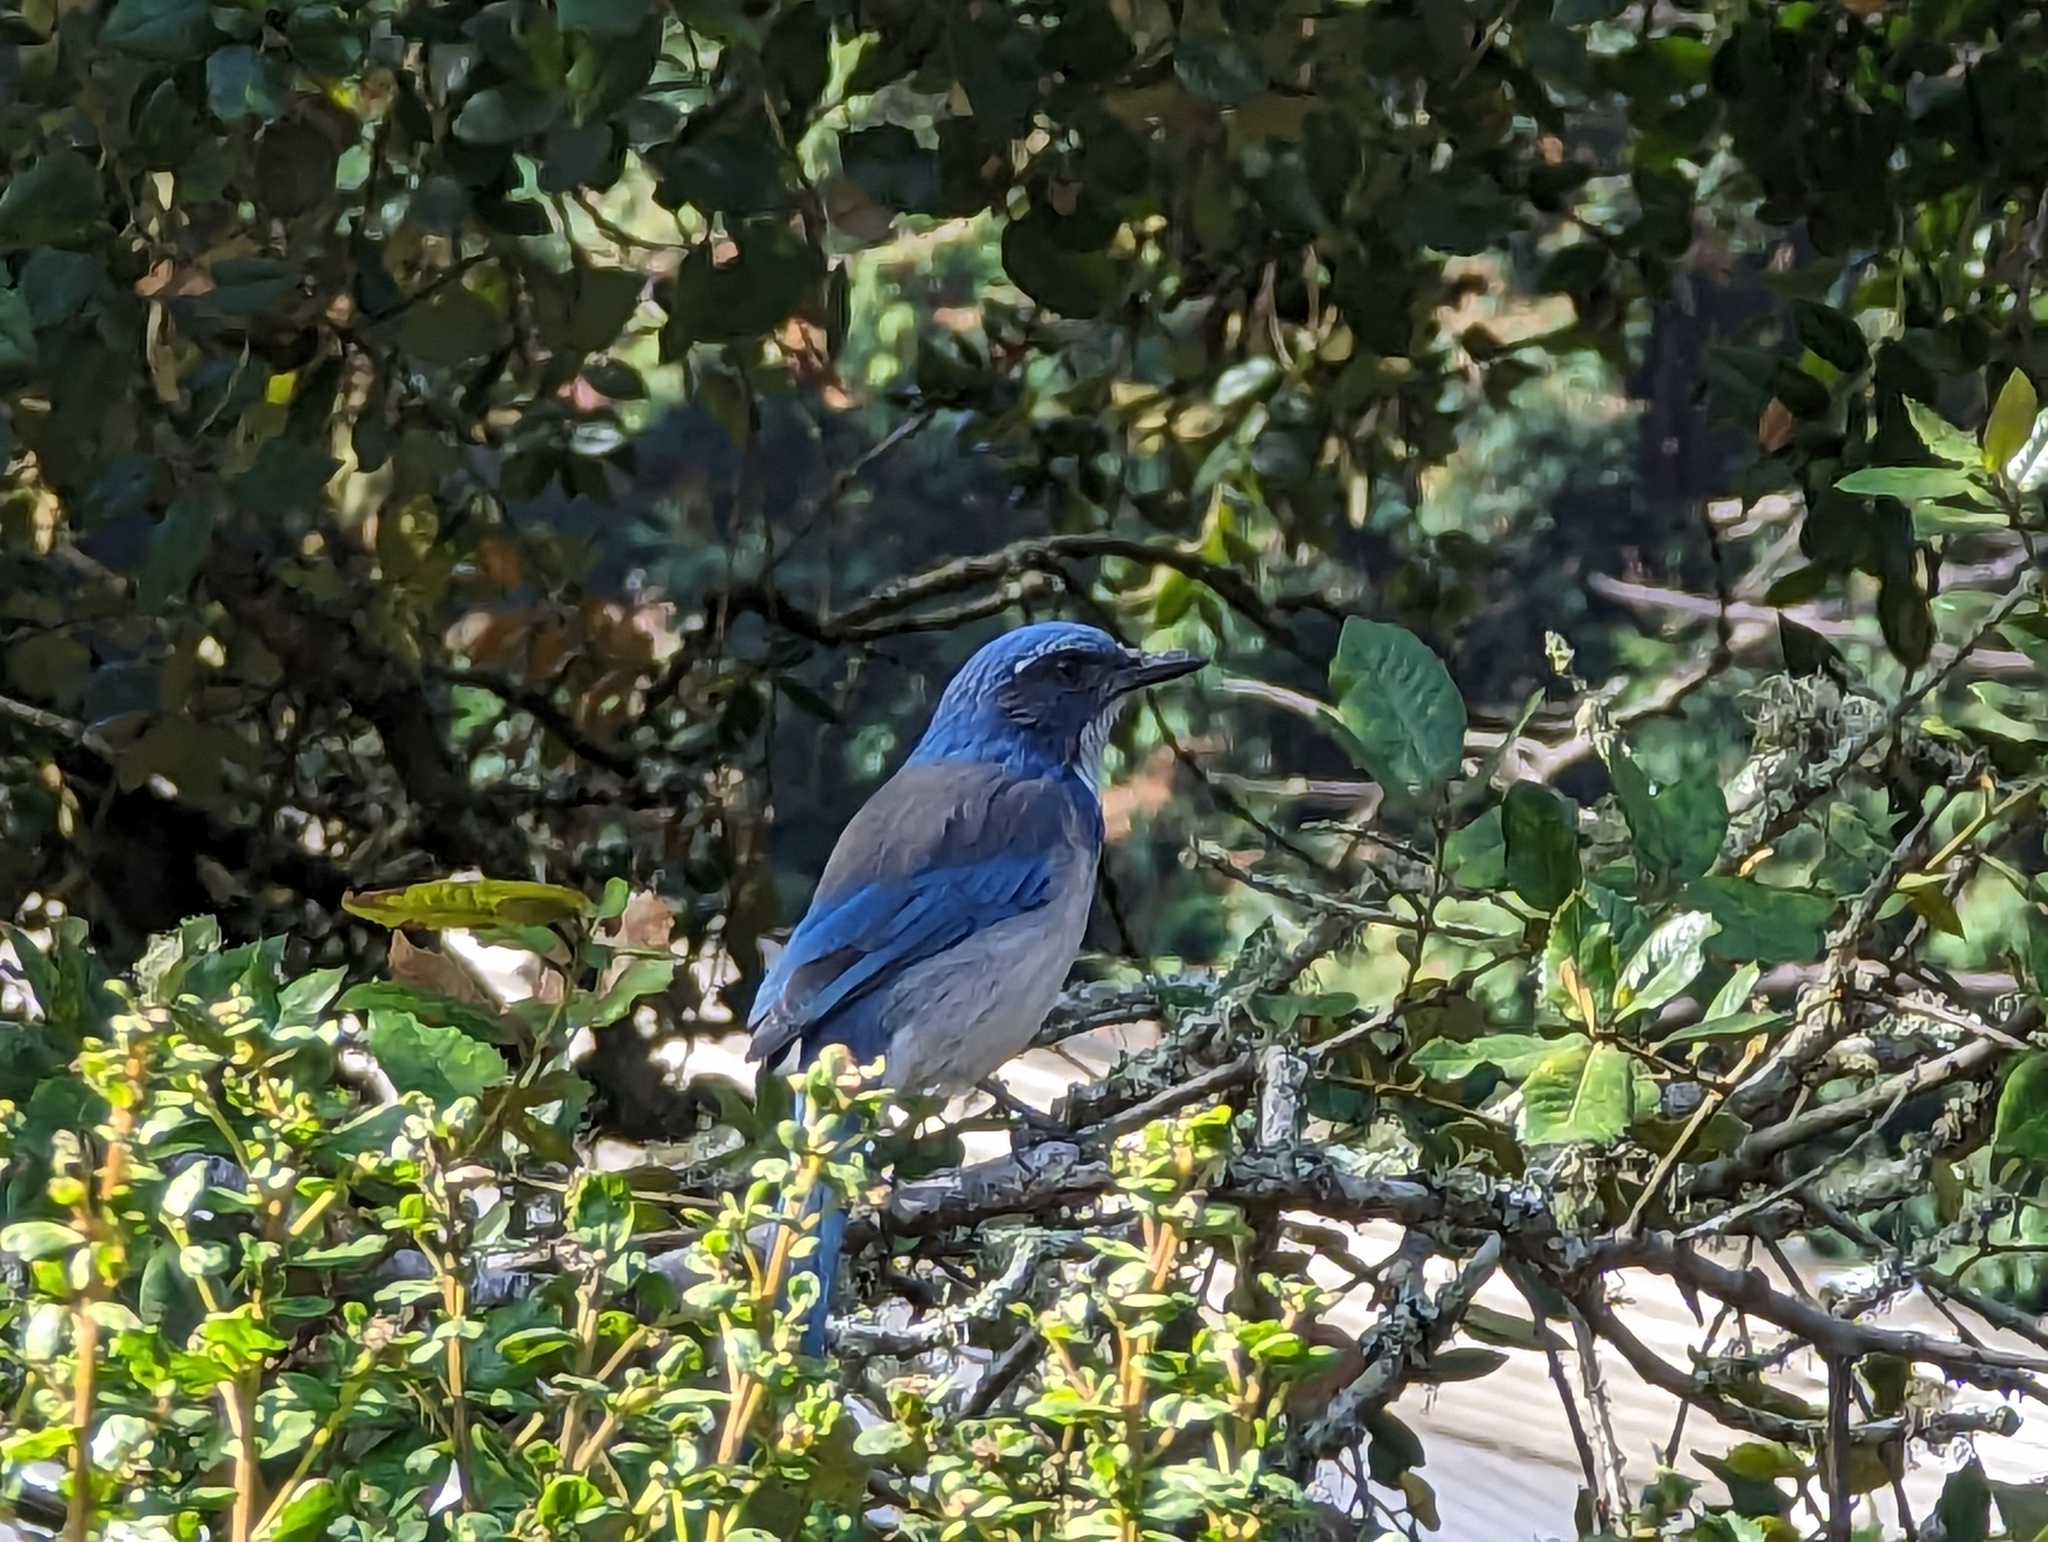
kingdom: Animalia
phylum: Chordata
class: Aves
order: Passeriformes
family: Corvidae
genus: Aphelocoma
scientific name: Aphelocoma californica
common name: California scrub-jay
